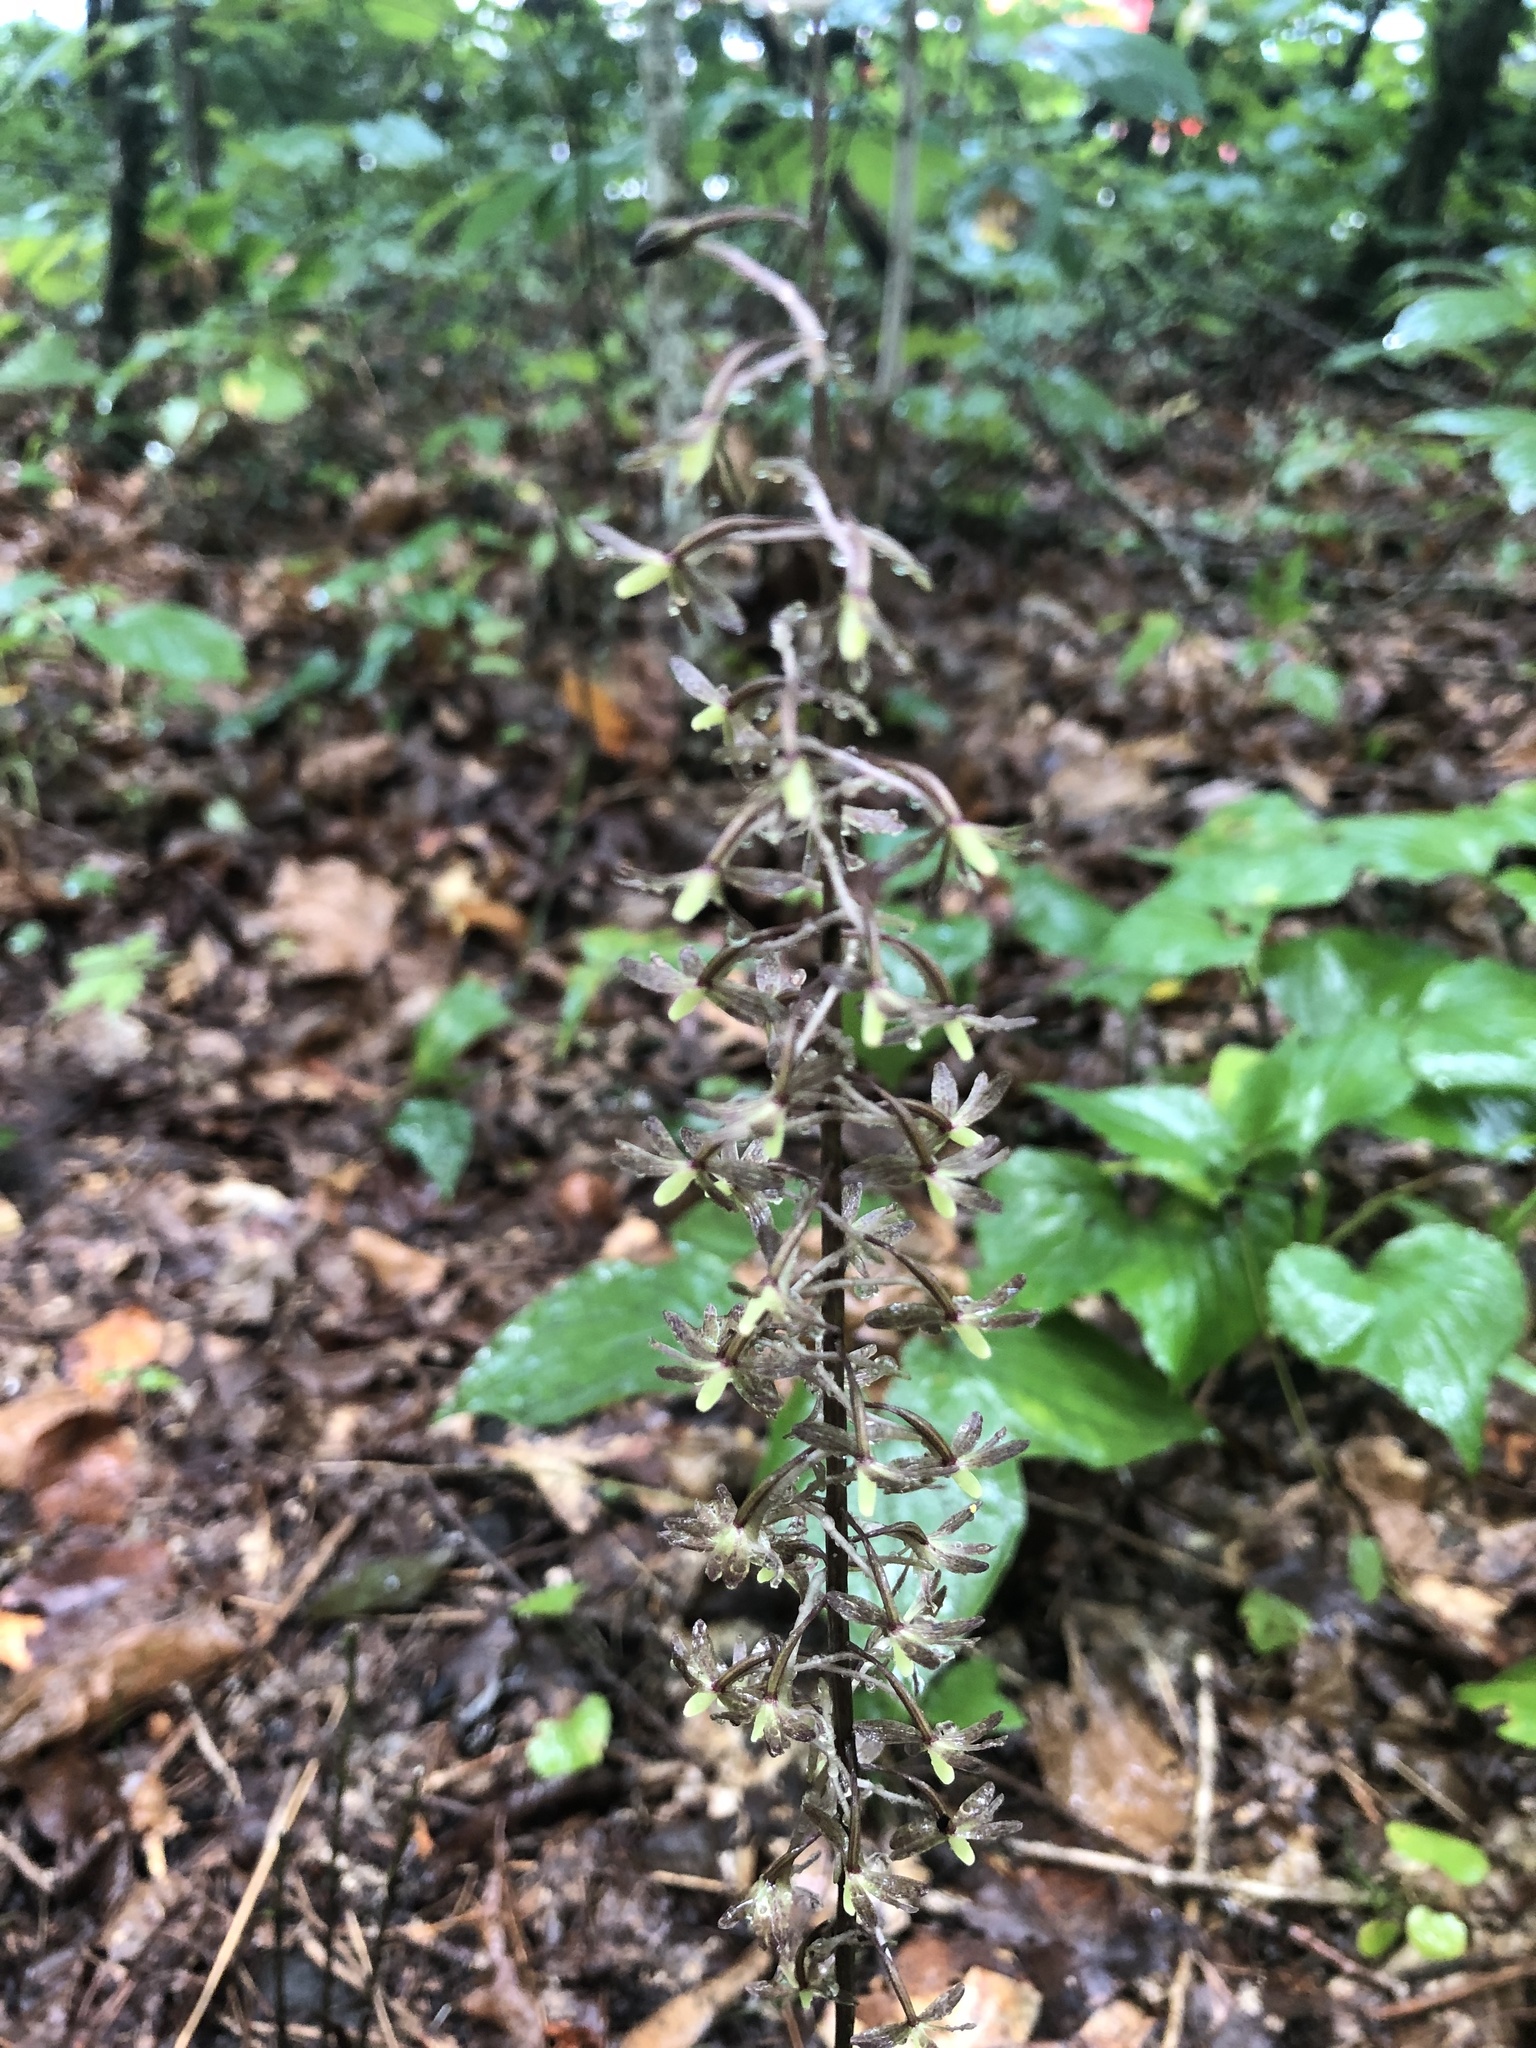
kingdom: Plantae
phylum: Tracheophyta
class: Liliopsida
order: Asparagales
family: Orchidaceae
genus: Tipularia
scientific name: Tipularia discolor
